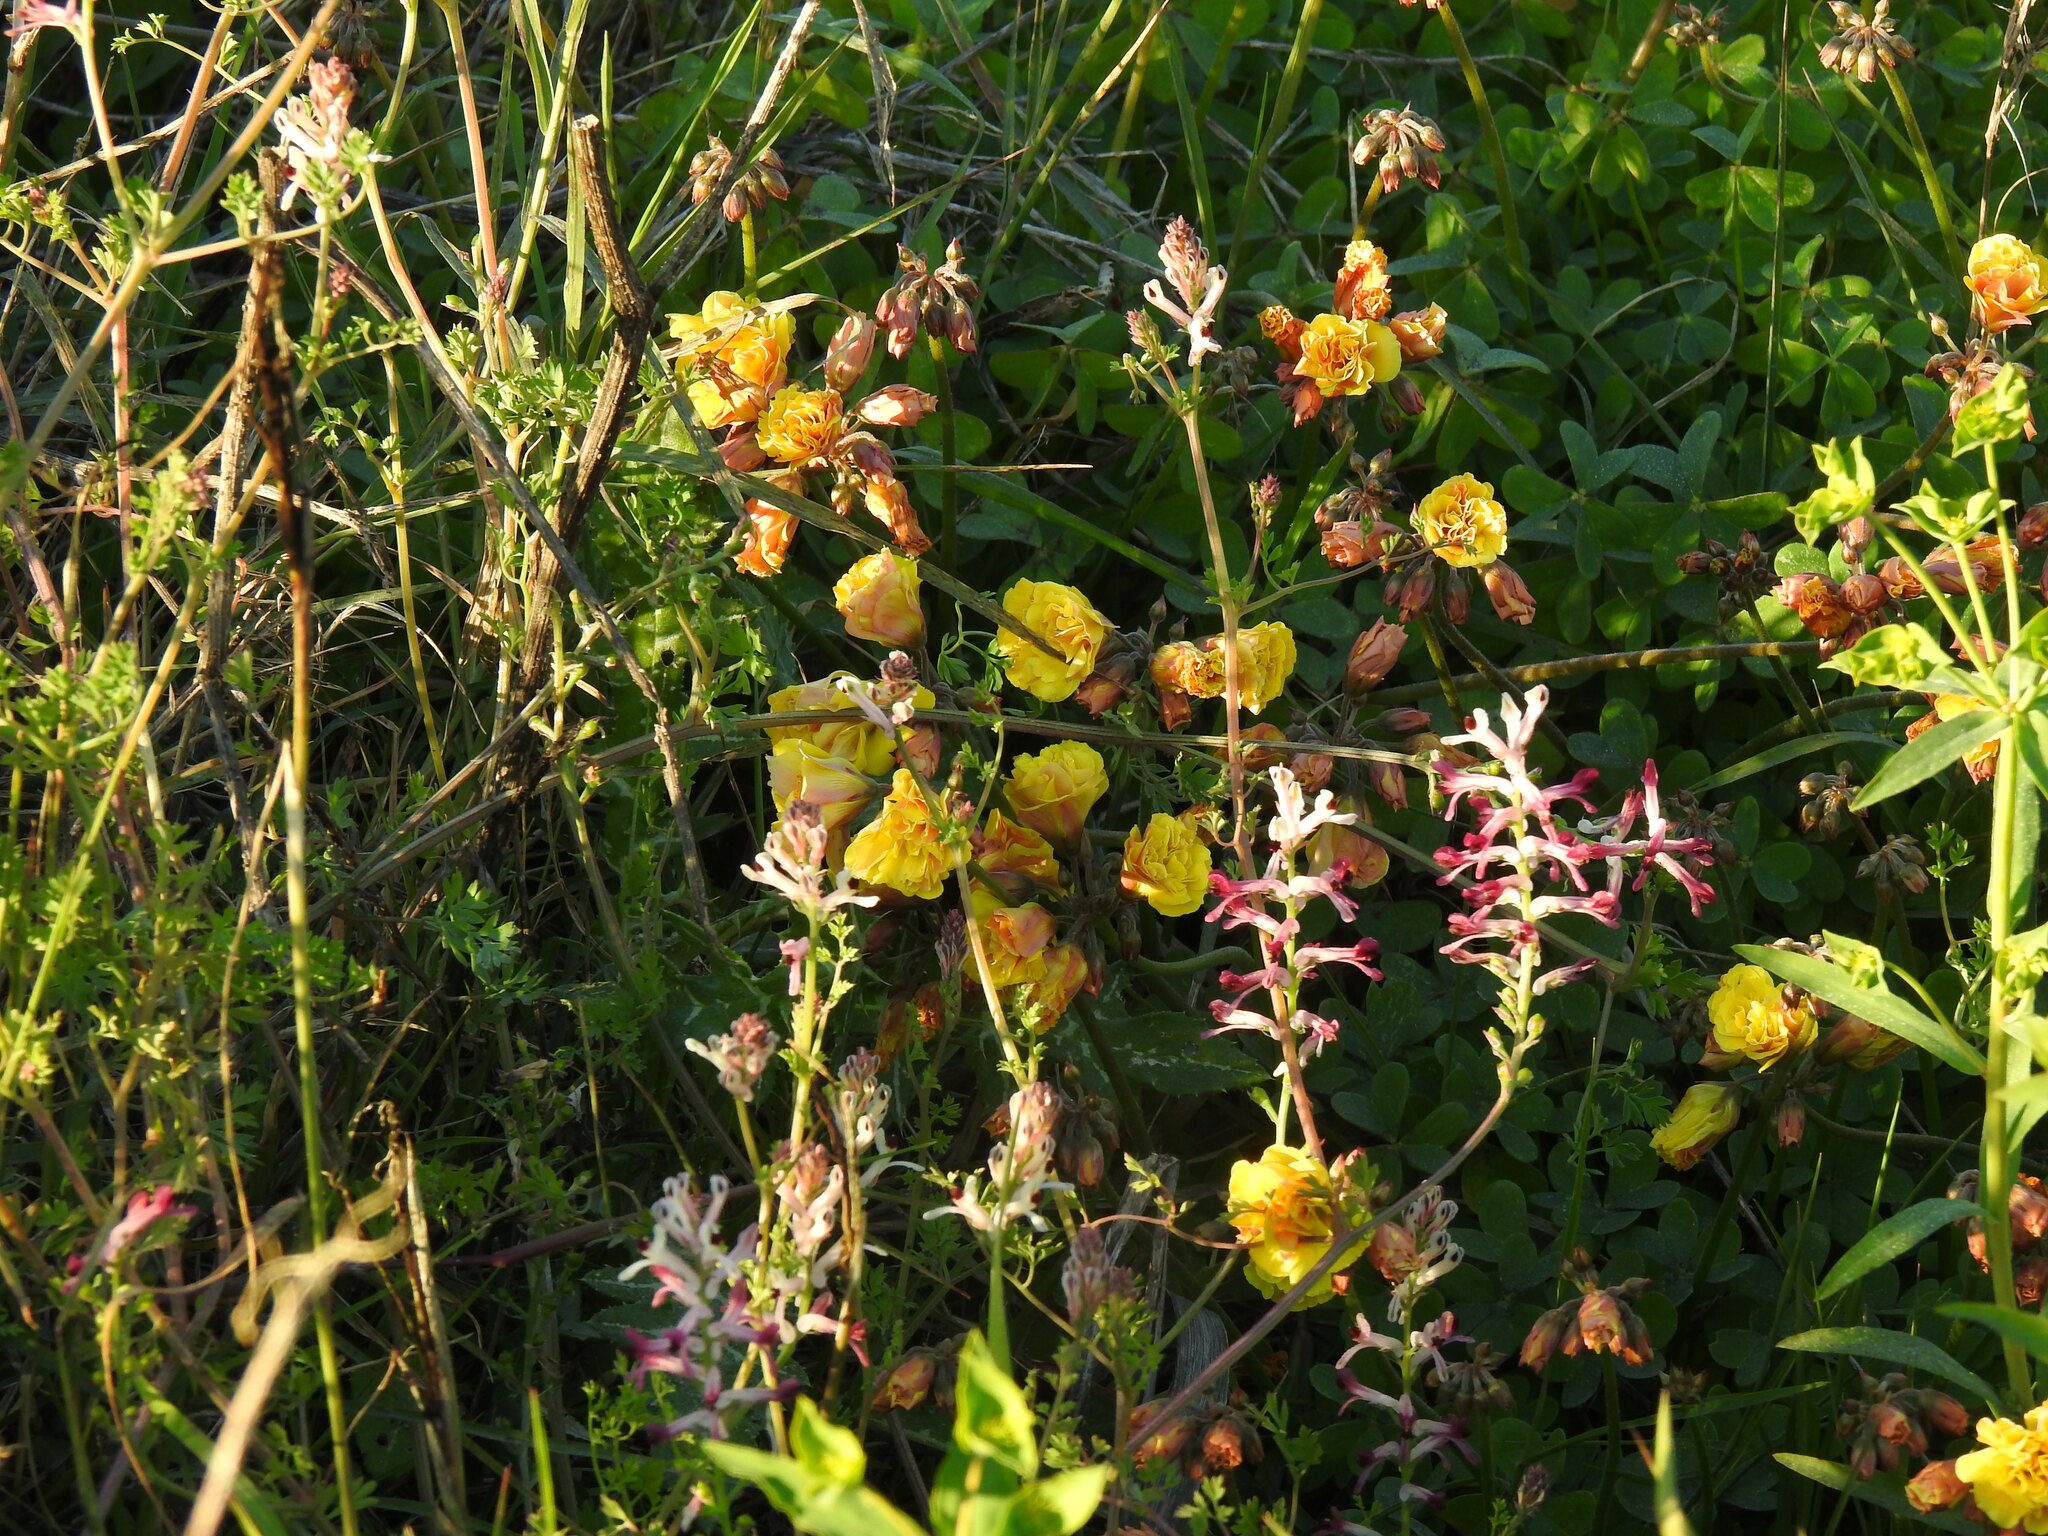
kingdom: Plantae
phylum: Tracheophyta
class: Magnoliopsida
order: Oxalidales
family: Oxalidaceae
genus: Oxalis
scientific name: Oxalis pes-caprae
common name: Bermuda-buttercup
